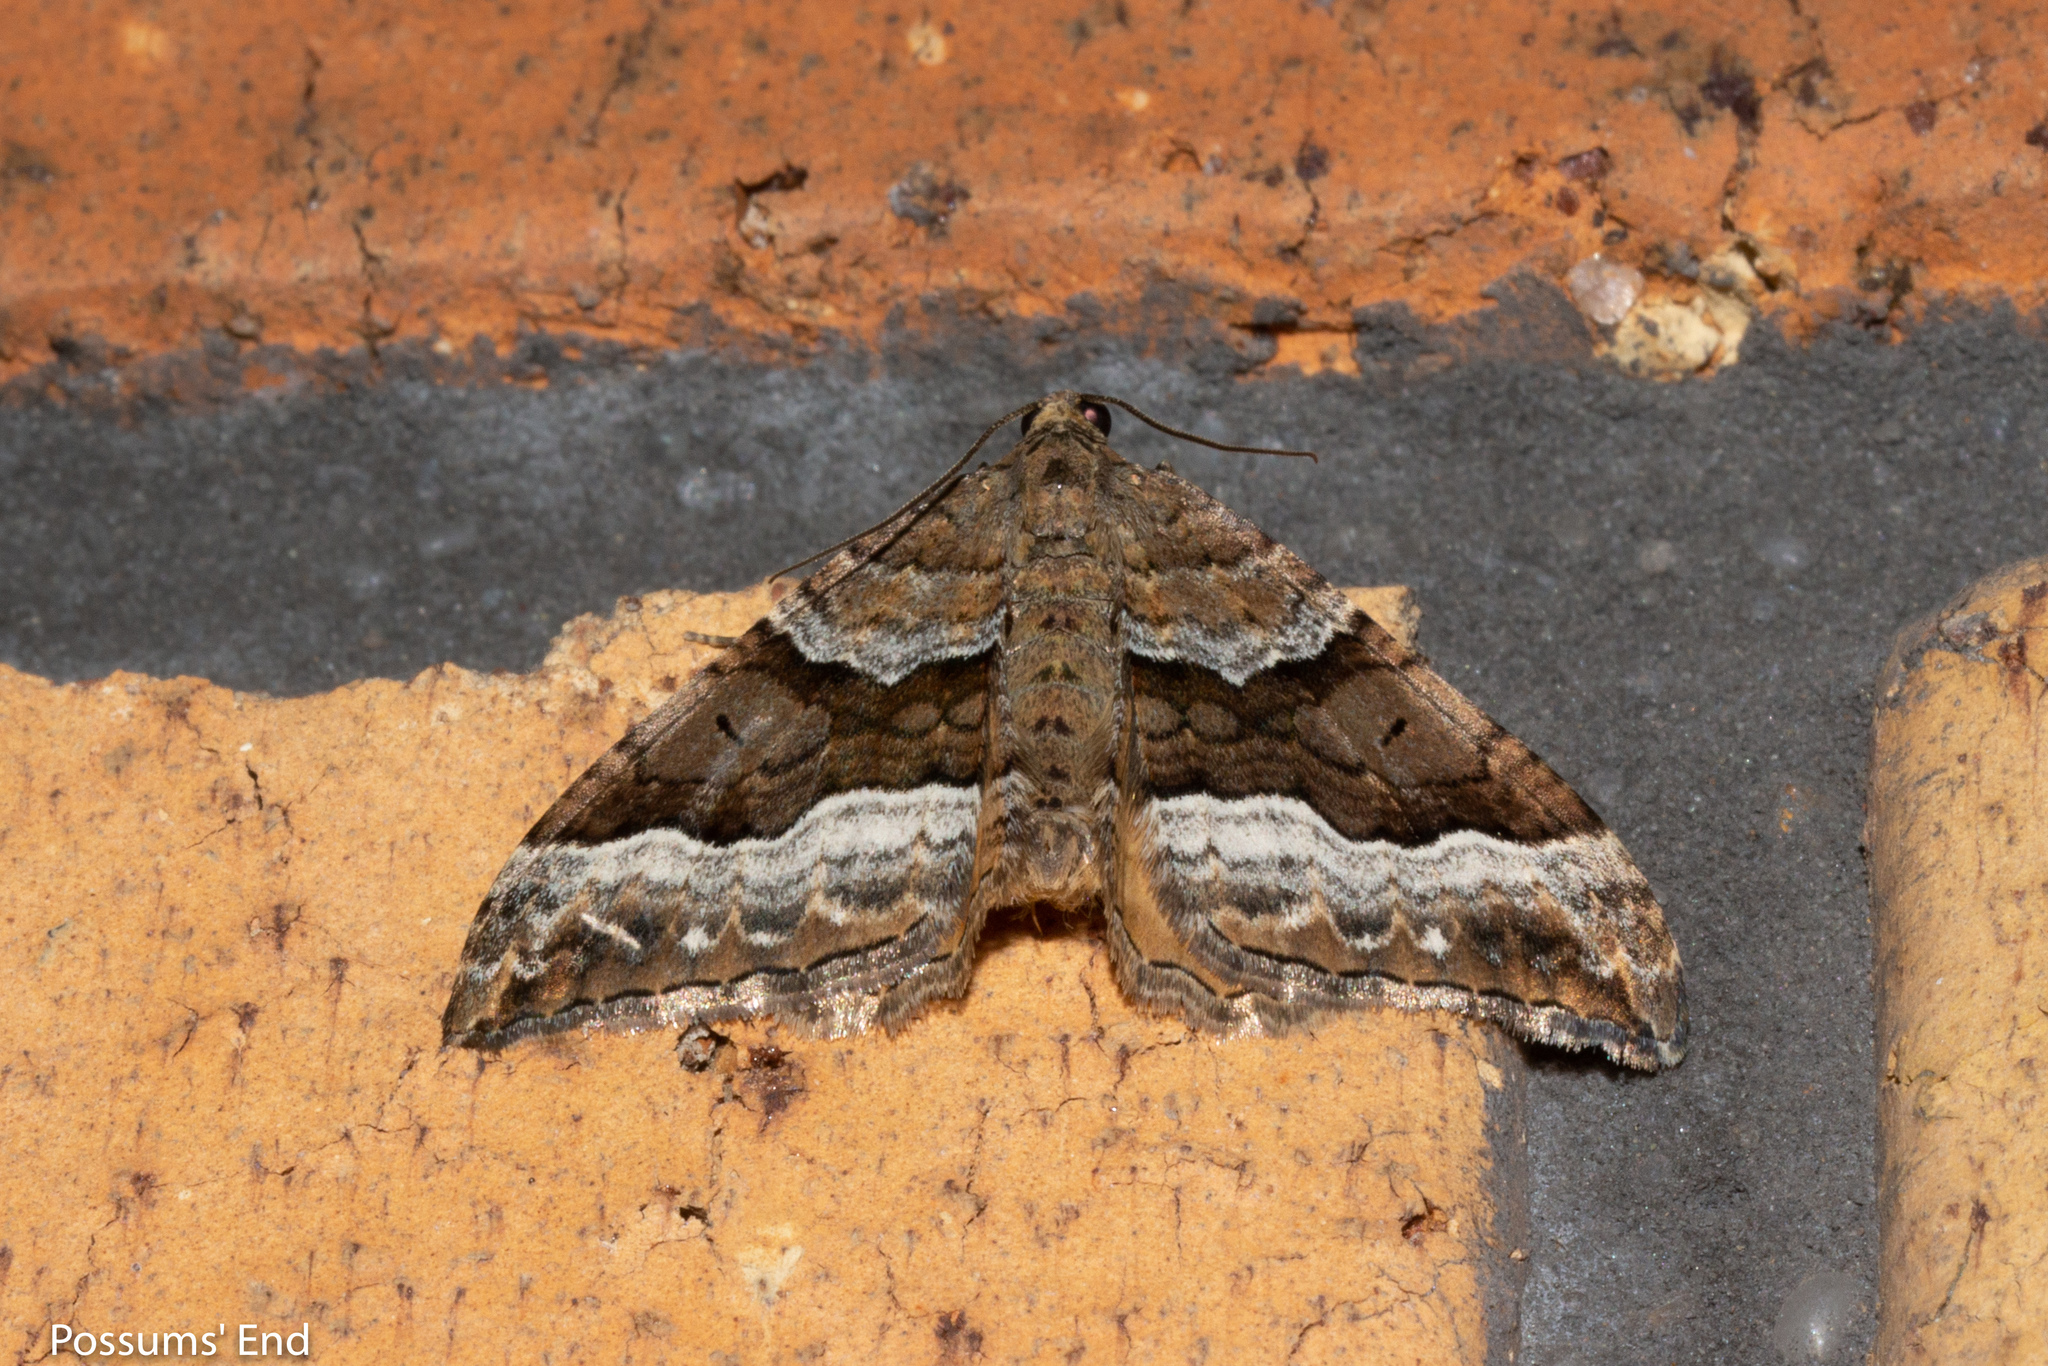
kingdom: Animalia
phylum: Arthropoda
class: Insecta
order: Lepidoptera
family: Geometridae
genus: Hydriomena
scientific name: Hydriomena deltoidata
